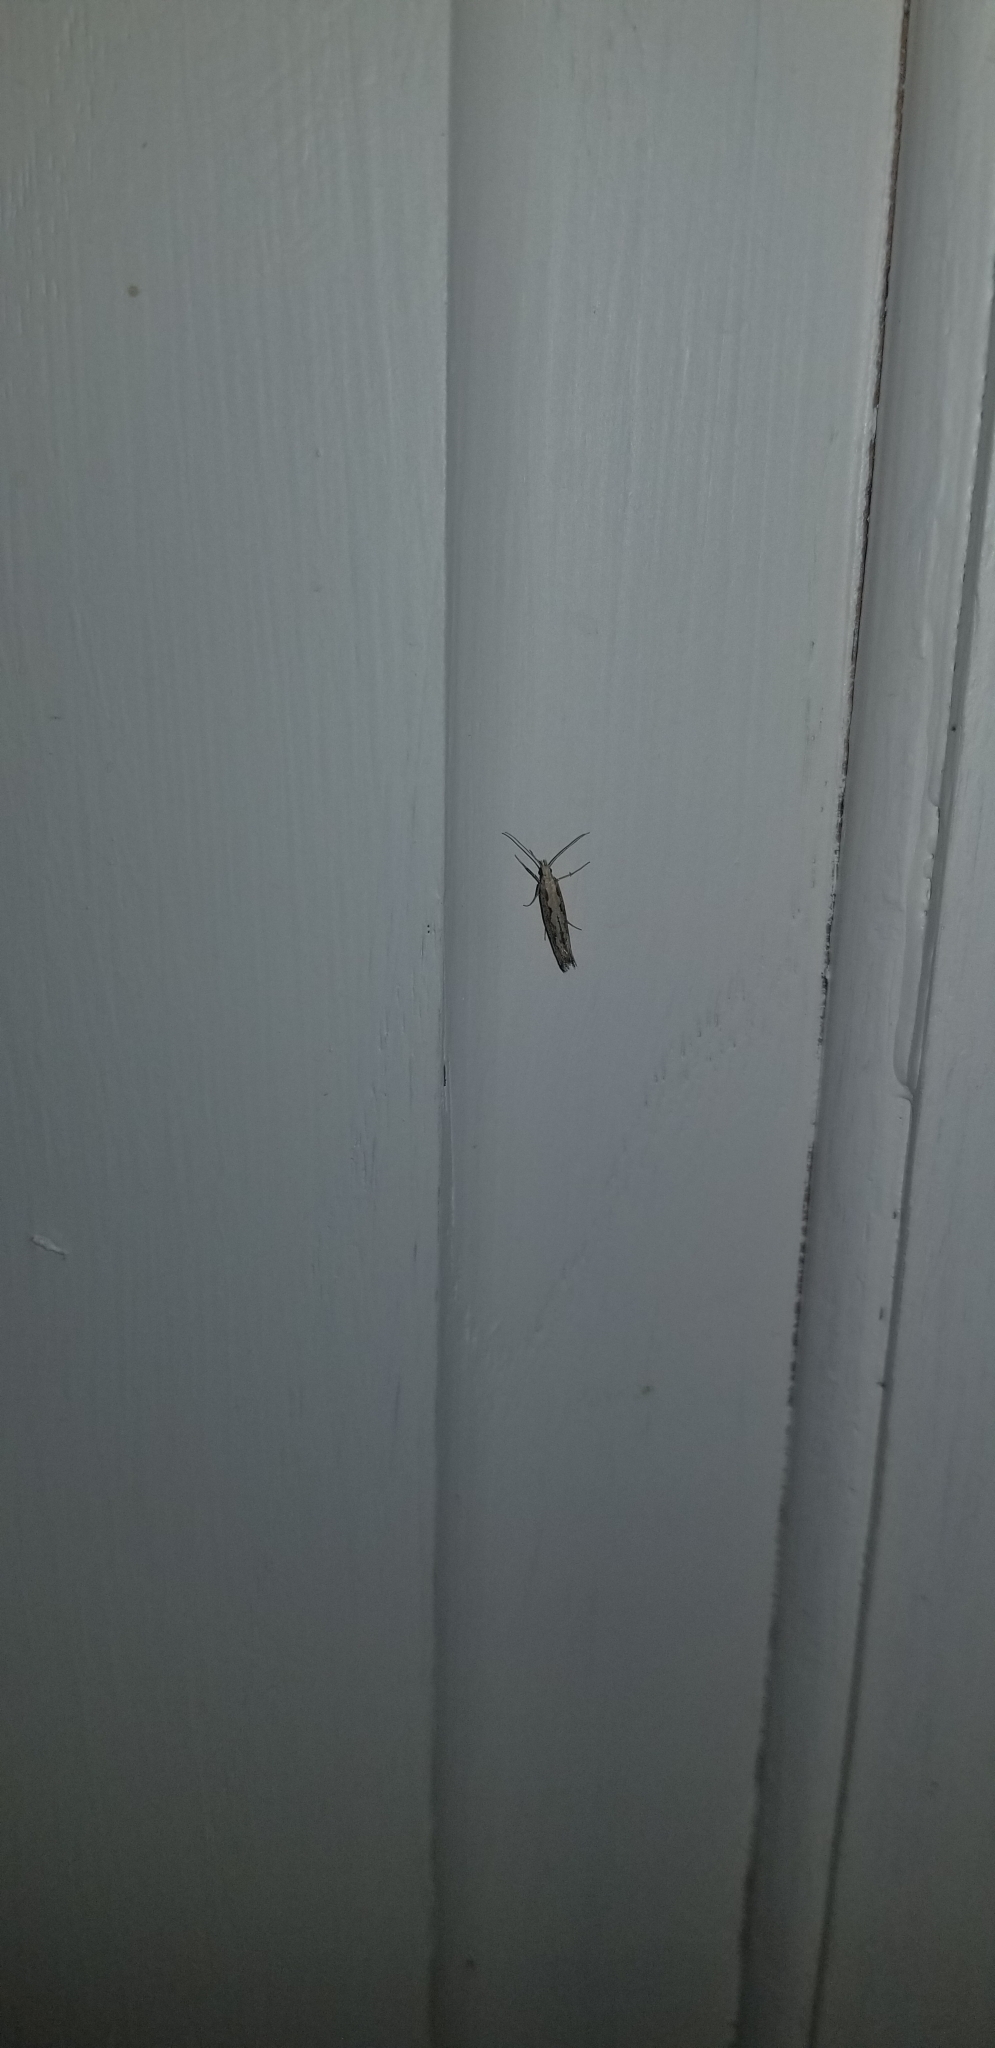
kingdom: Animalia
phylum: Arthropoda
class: Insecta
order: Lepidoptera
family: Plutellidae
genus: Plutella
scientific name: Plutella xylostella
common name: Diamond-back moth
